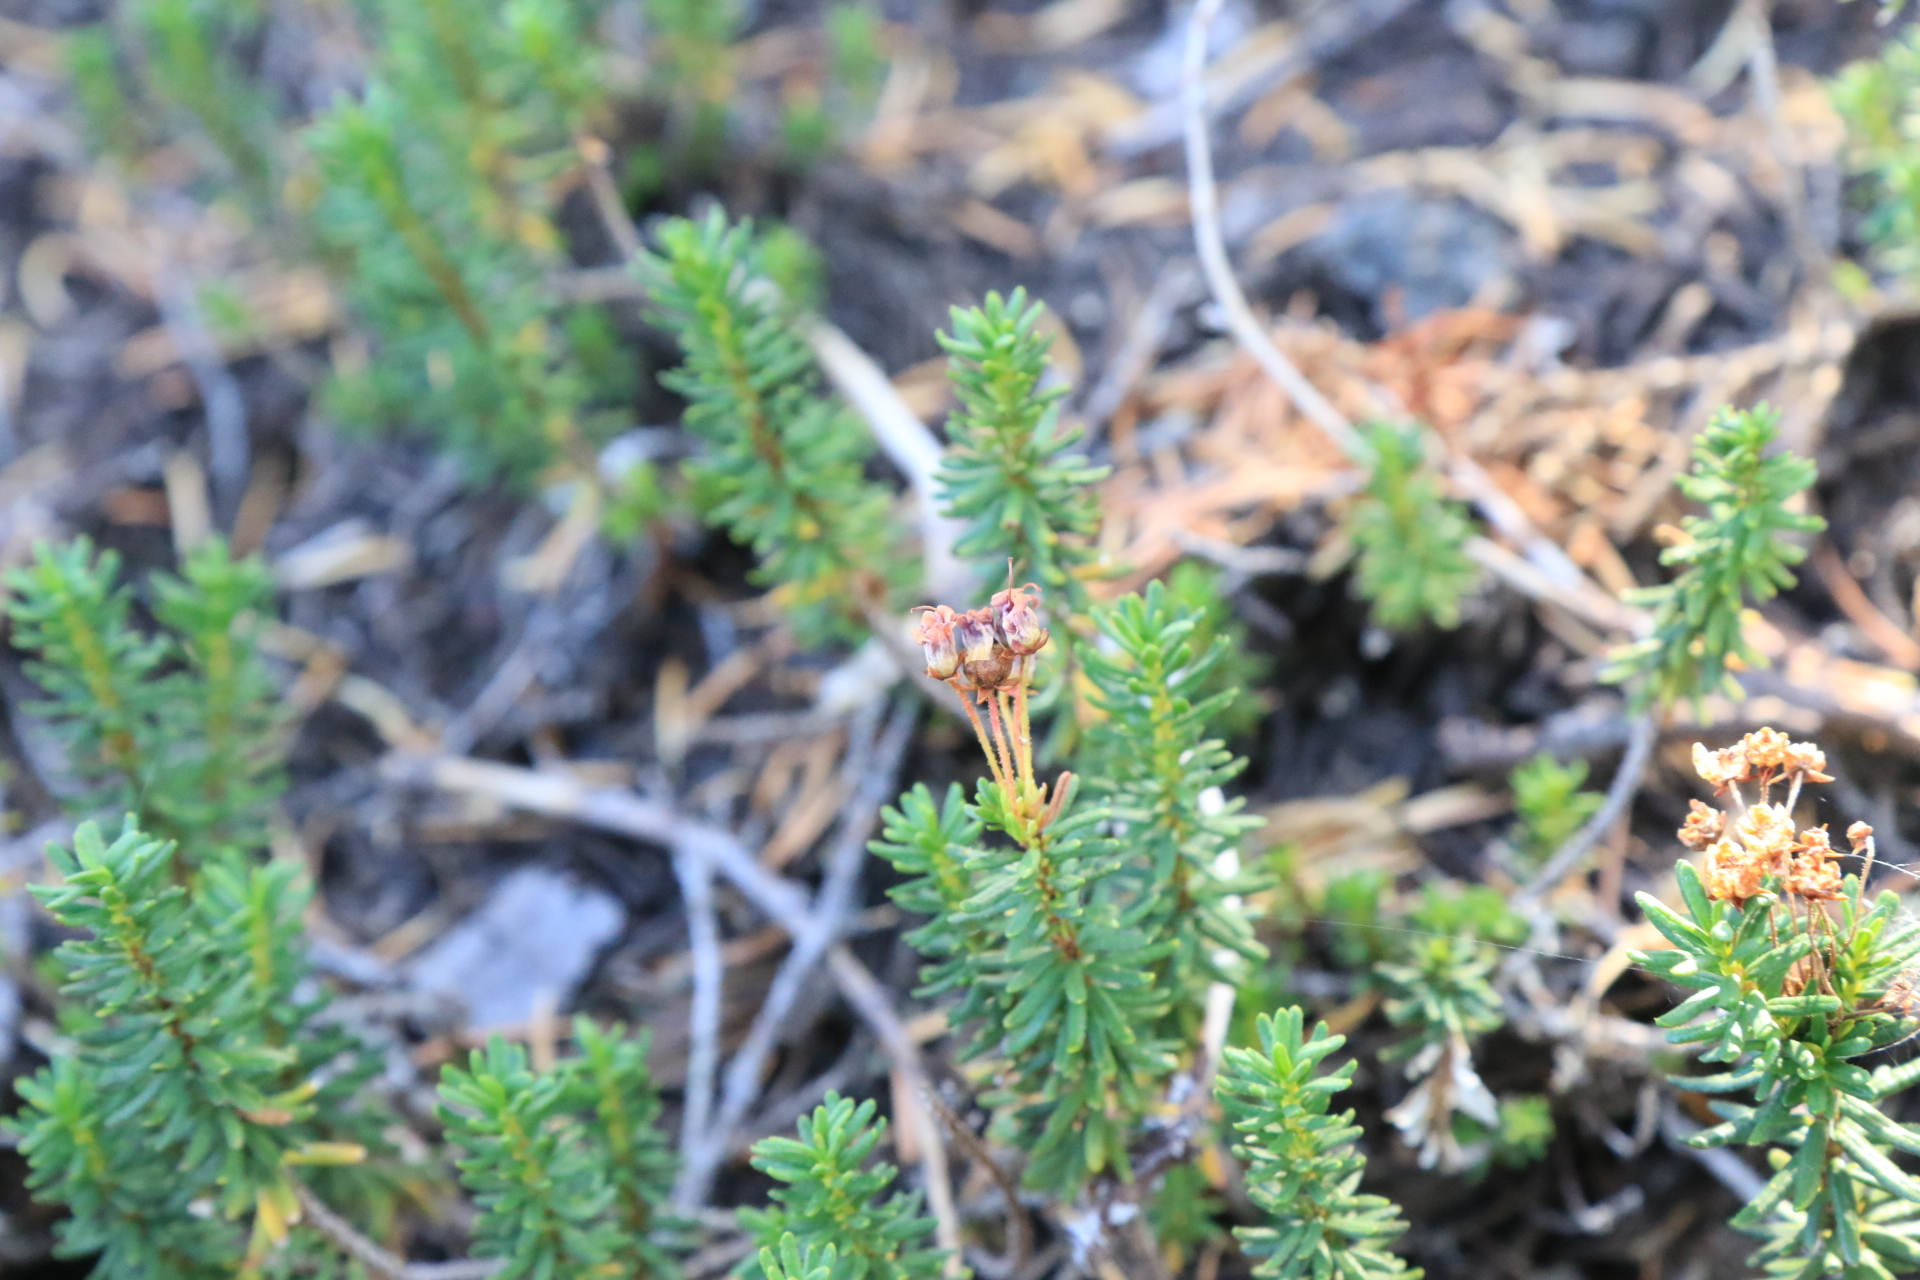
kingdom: Plantae
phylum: Tracheophyta
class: Magnoliopsida
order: Ericales
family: Ericaceae
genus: Phyllodoce
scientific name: Phyllodoce empetriformis
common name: Pink mountain heather
